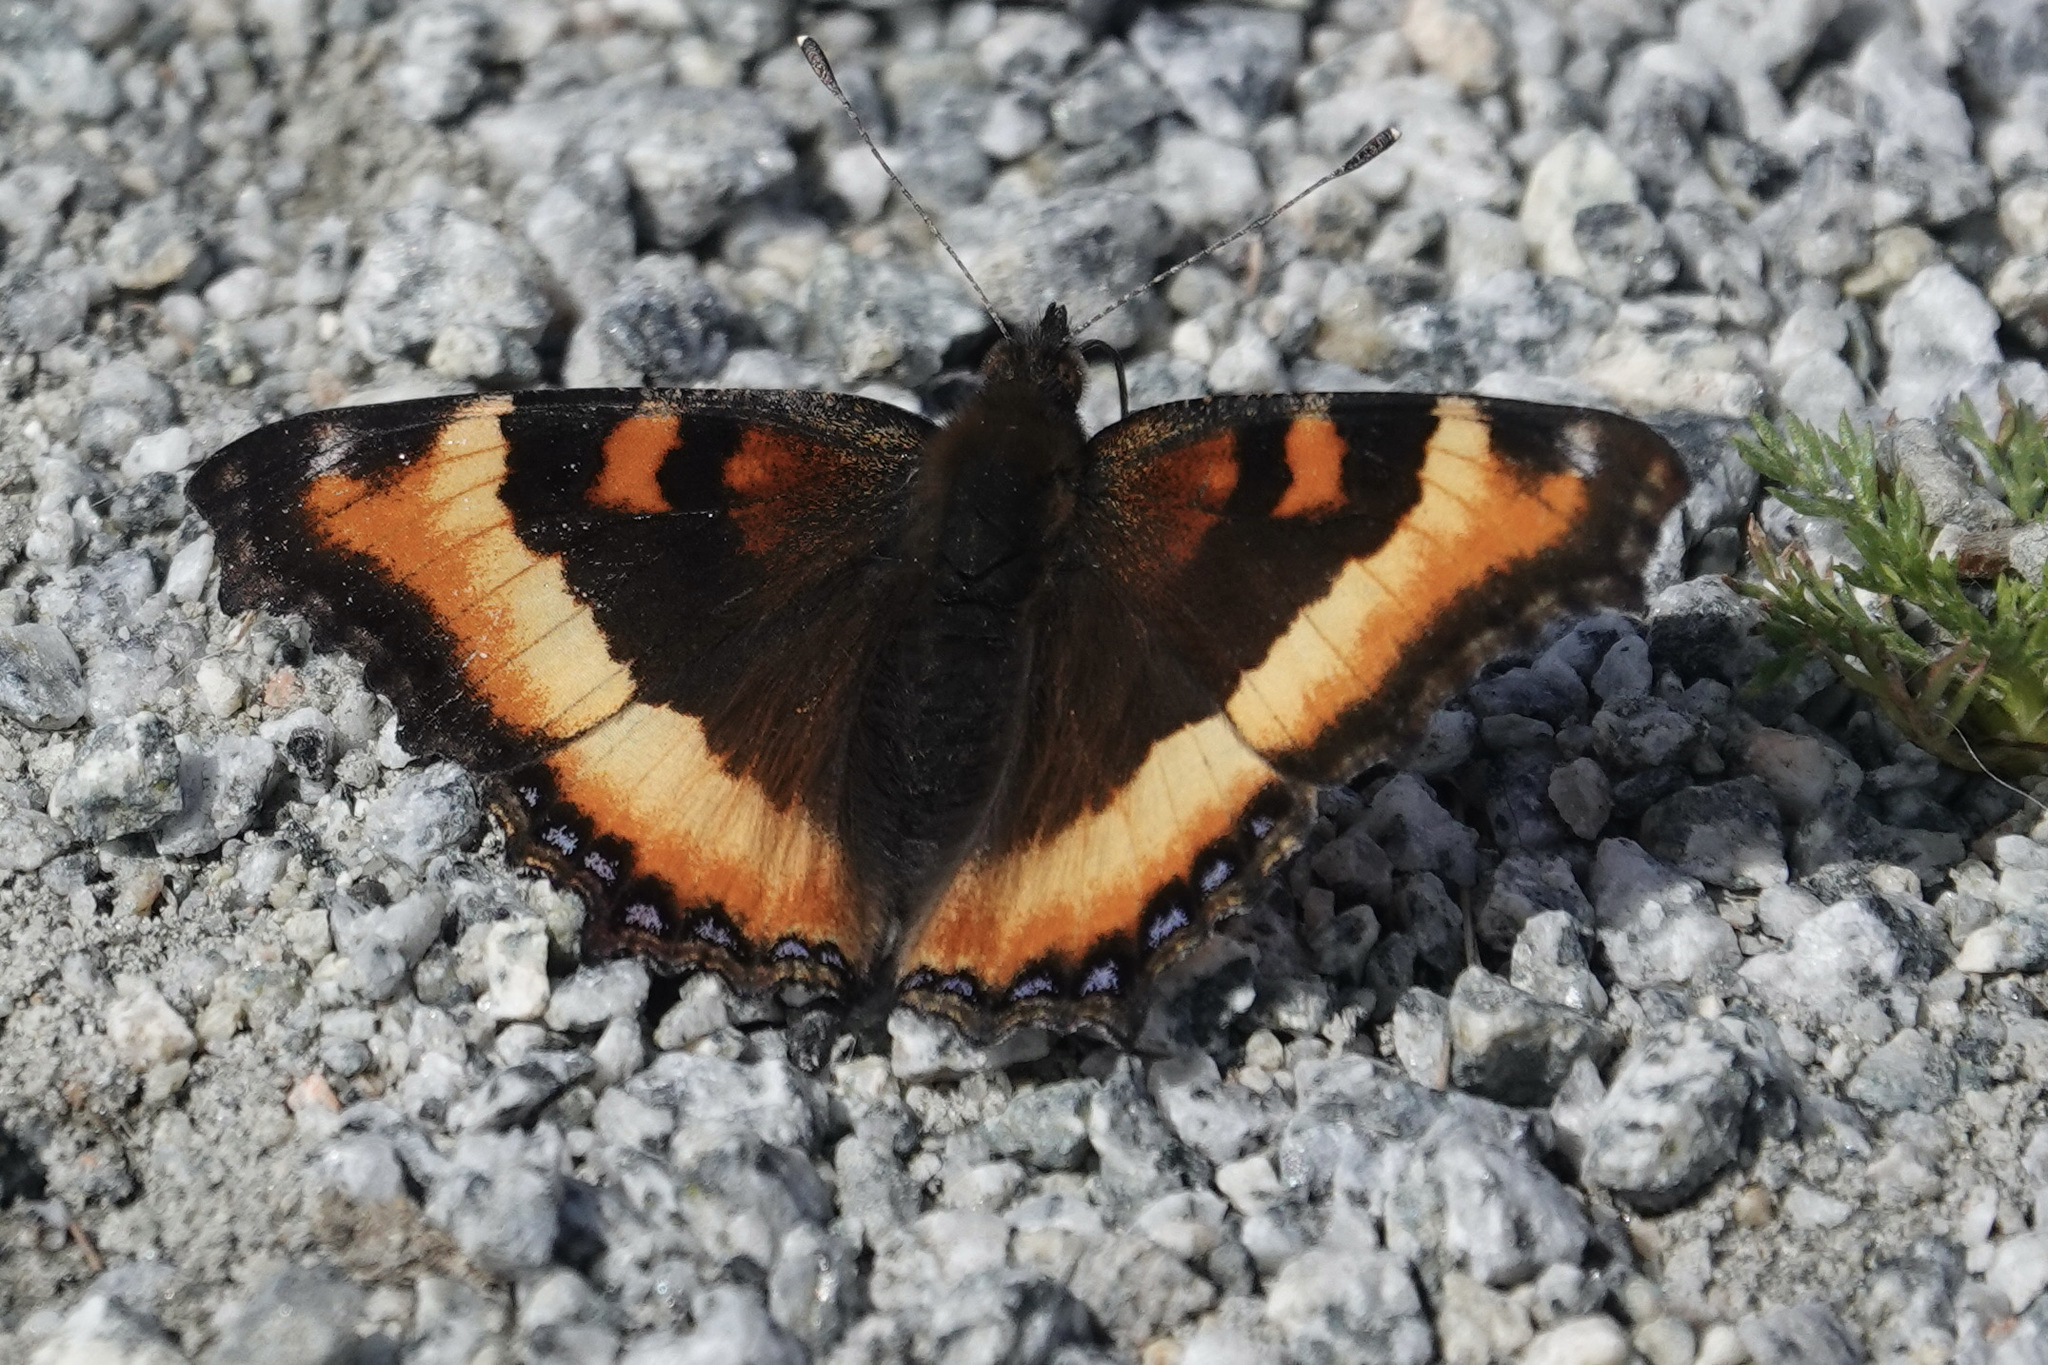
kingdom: Animalia
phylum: Arthropoda
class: Insecta
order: Lepidoptera
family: Nymphalidae
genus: Aglais
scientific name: Aglais milberti
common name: Milbert's tortoiseshell
